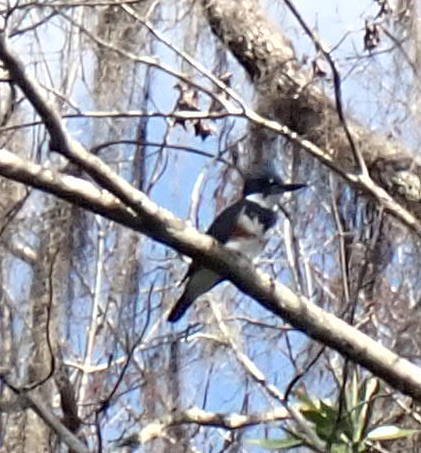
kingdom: Animalia
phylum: Chordata
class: Aves
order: Coraciiformes
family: Alcedinidae
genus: Megaceryle
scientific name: Megaceryle alcyon
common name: Belted kingfisher
